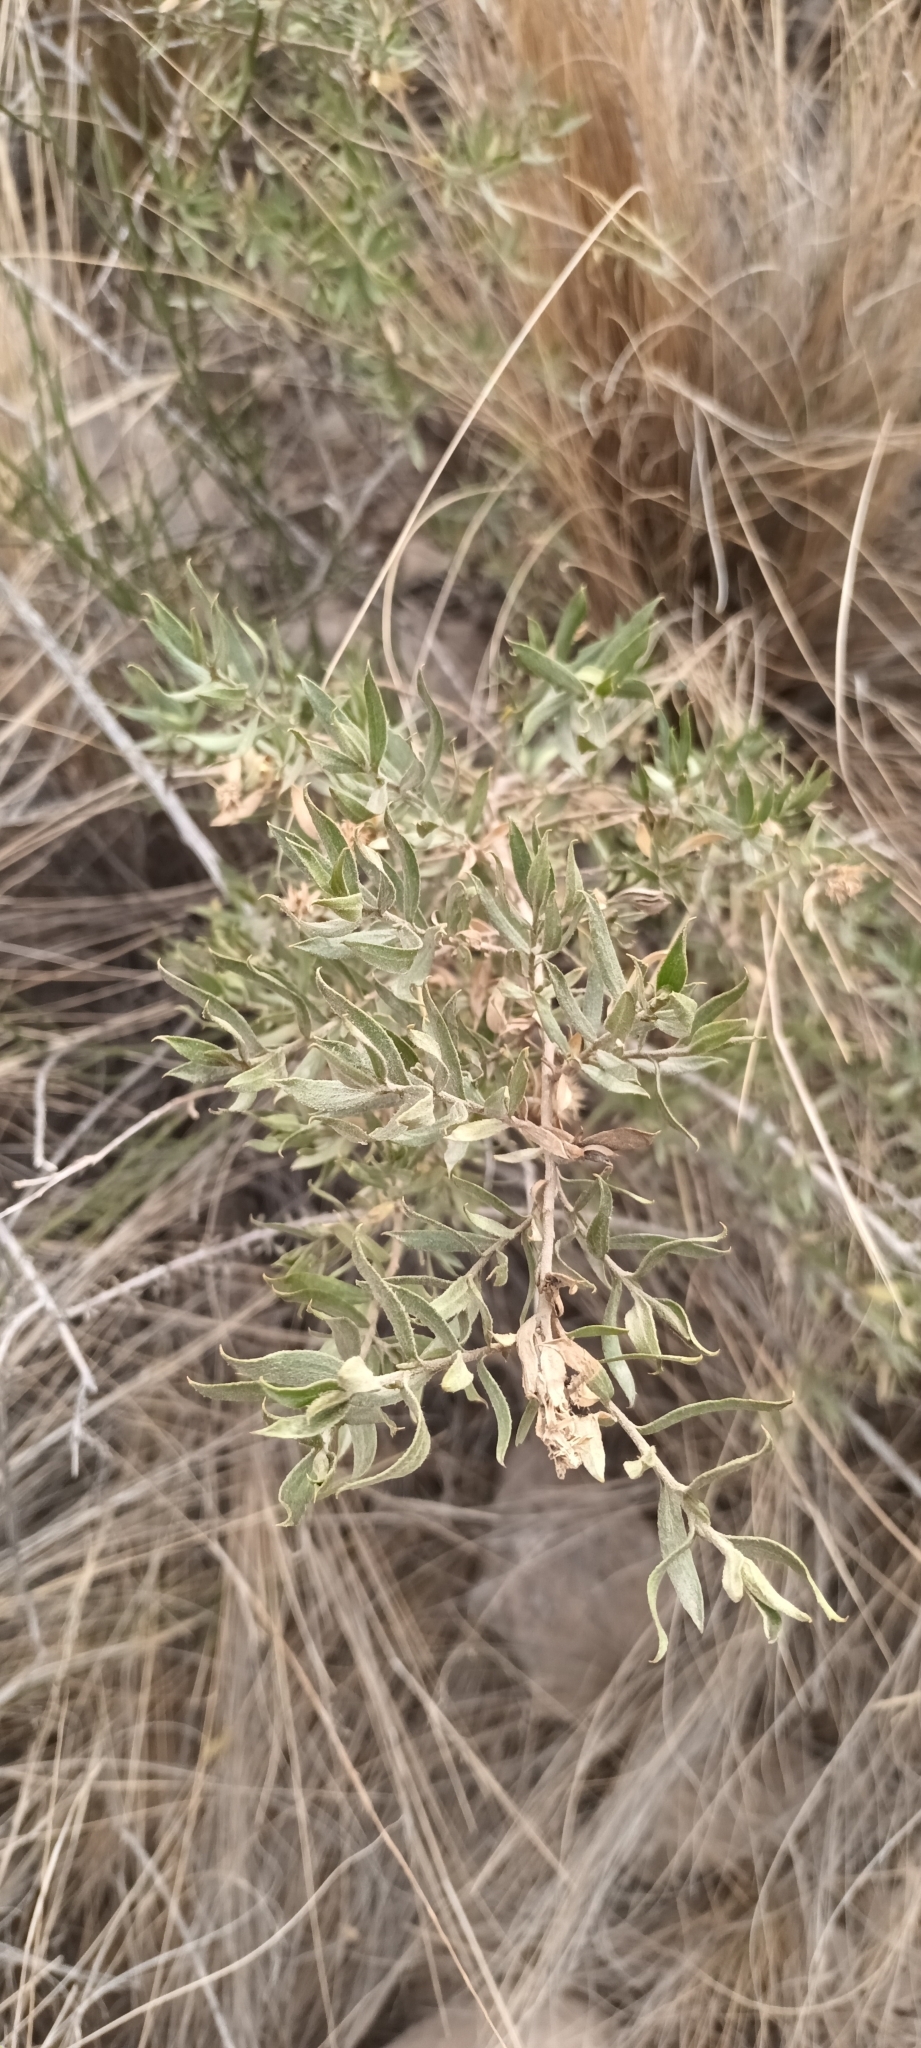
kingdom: Plantae
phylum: Tracheophyta
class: Magnoliopsida
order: Asterales
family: Asteraceae
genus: Gochnatia
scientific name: Gochnatia glutinosa
